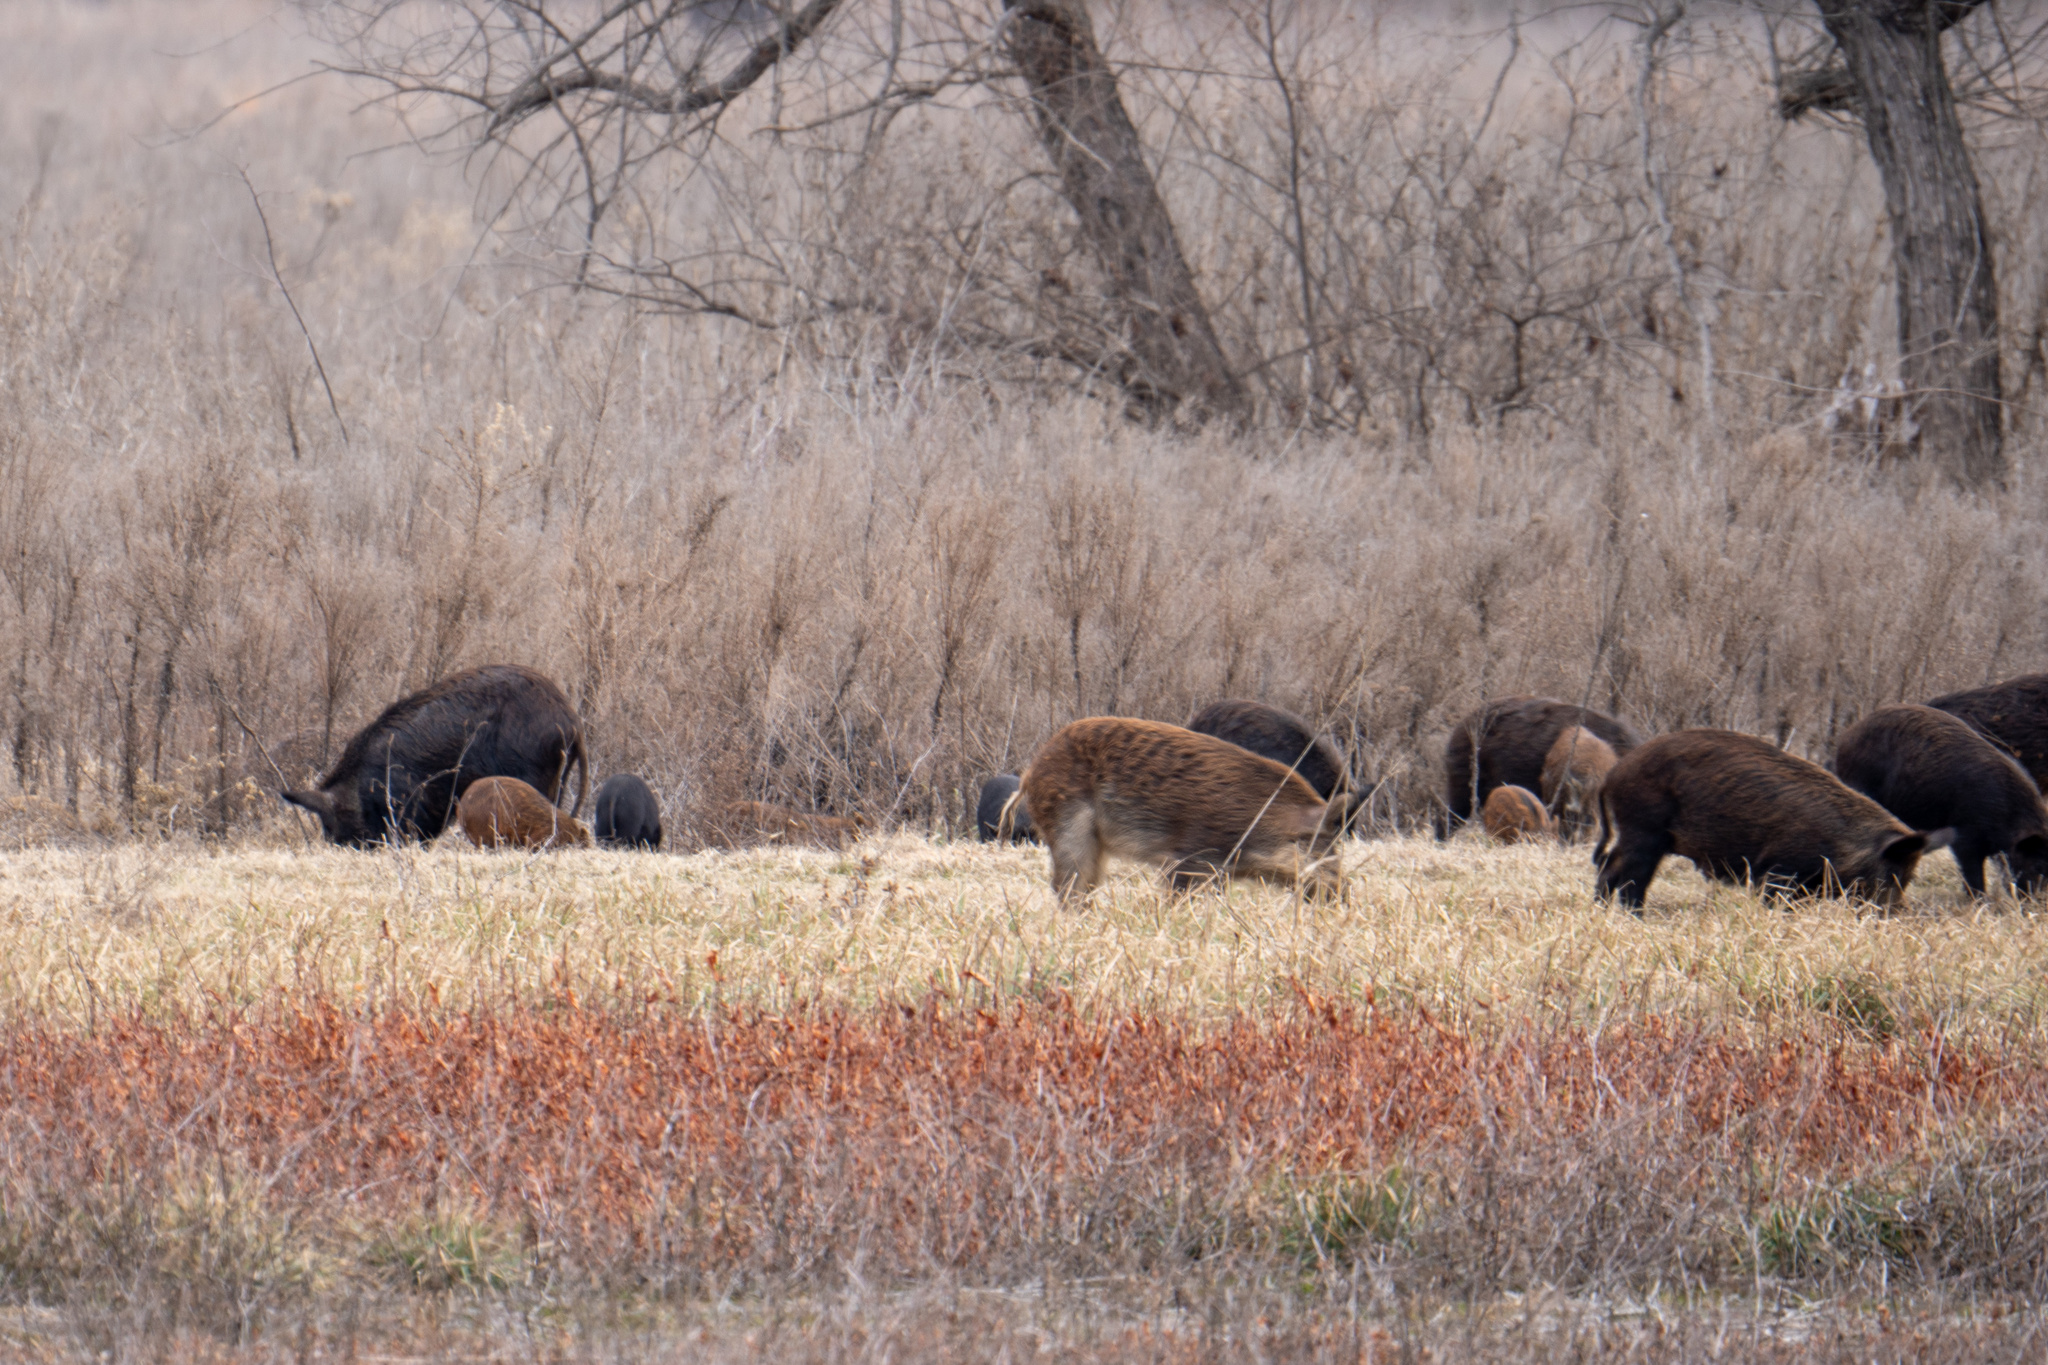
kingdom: Animalia
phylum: Chordata
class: Mammalia
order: Artiodactyla
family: Suidae
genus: Sus
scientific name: Sus scrofa
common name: Wild boar
